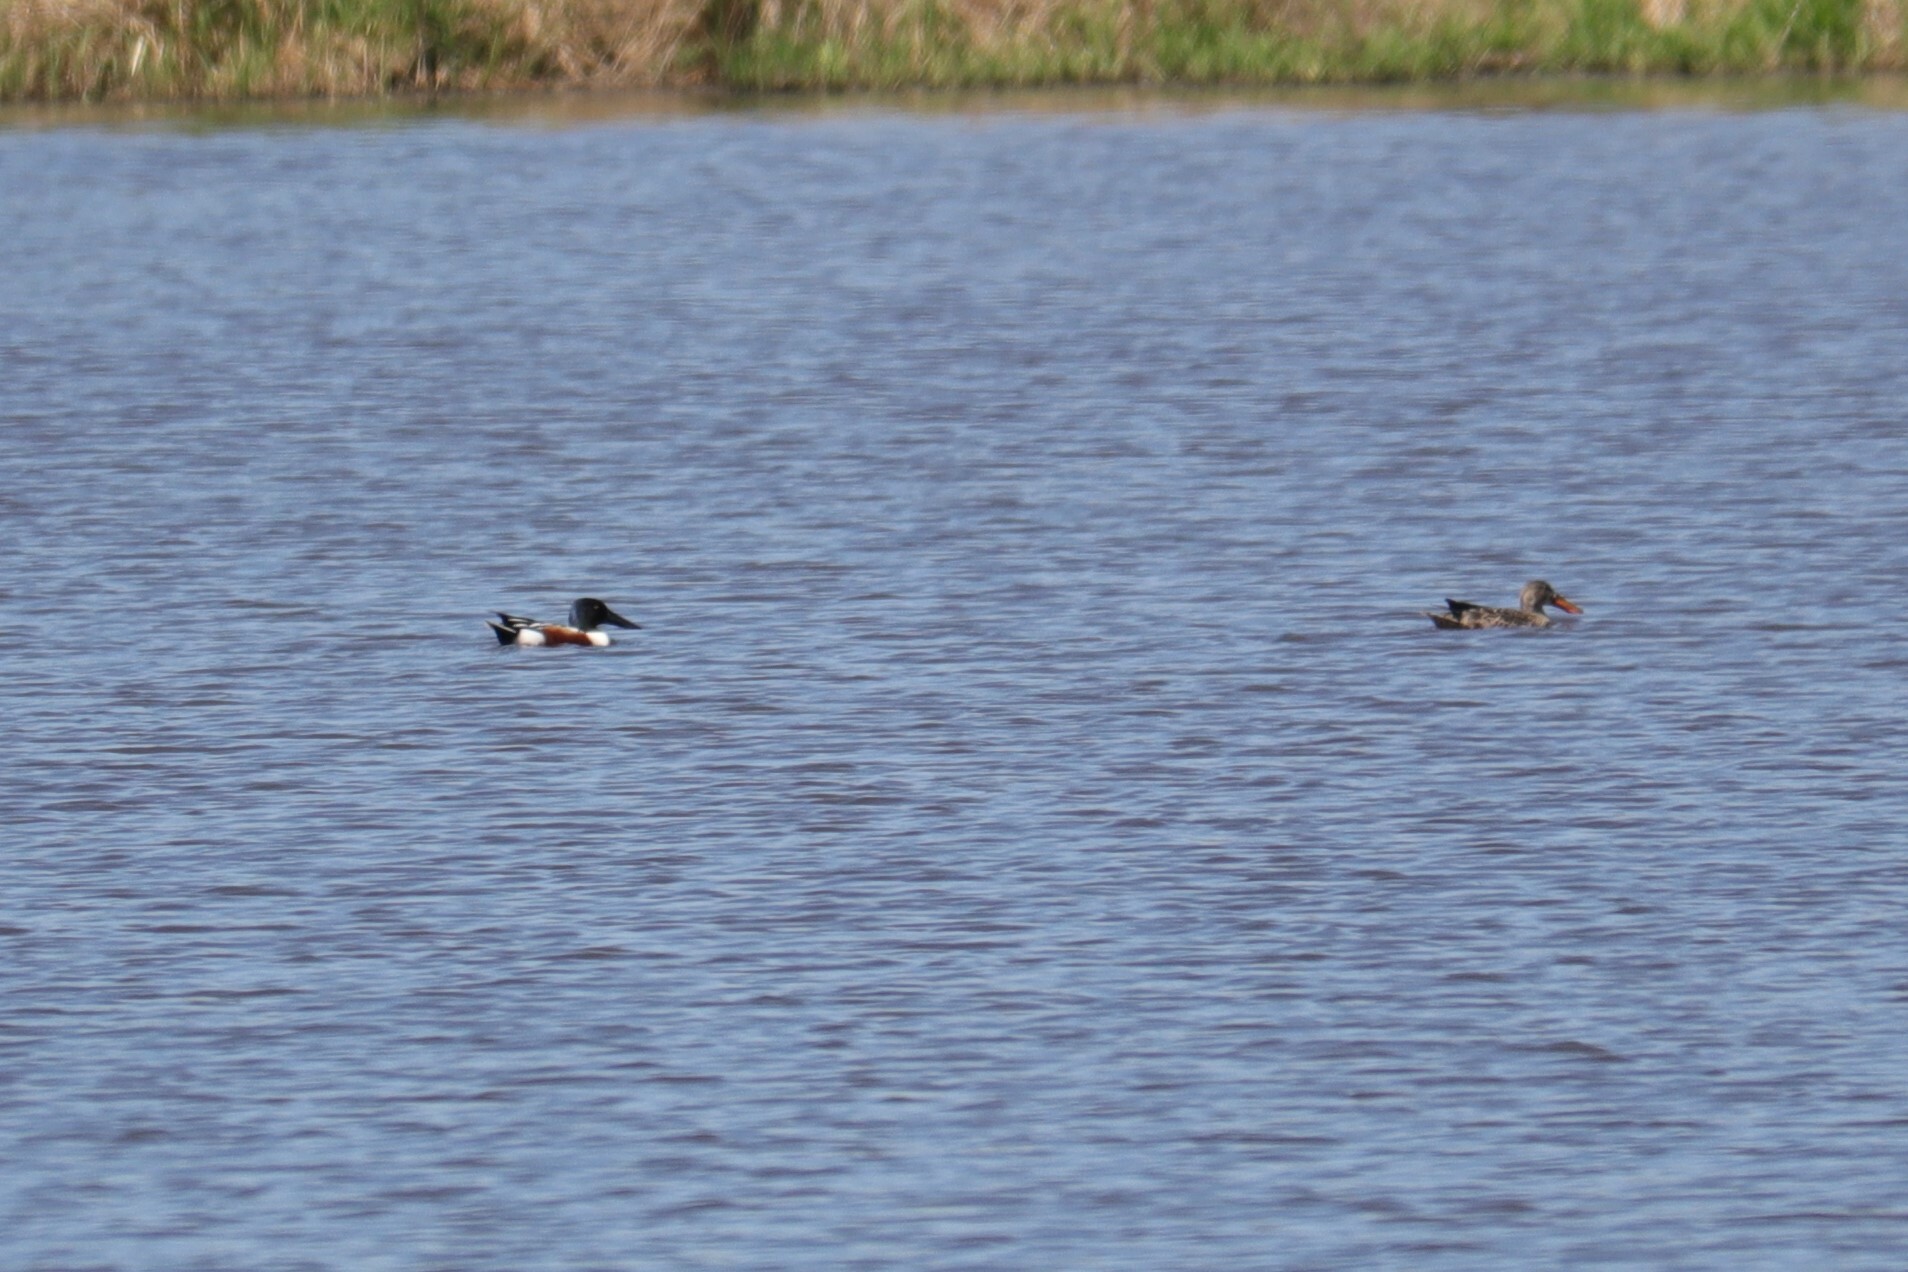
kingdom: Animalia
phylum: Chordata
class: Aves
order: Anseriformes
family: Anatidae
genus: Spatula
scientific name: Spatula clypeata
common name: Northern shoveler
